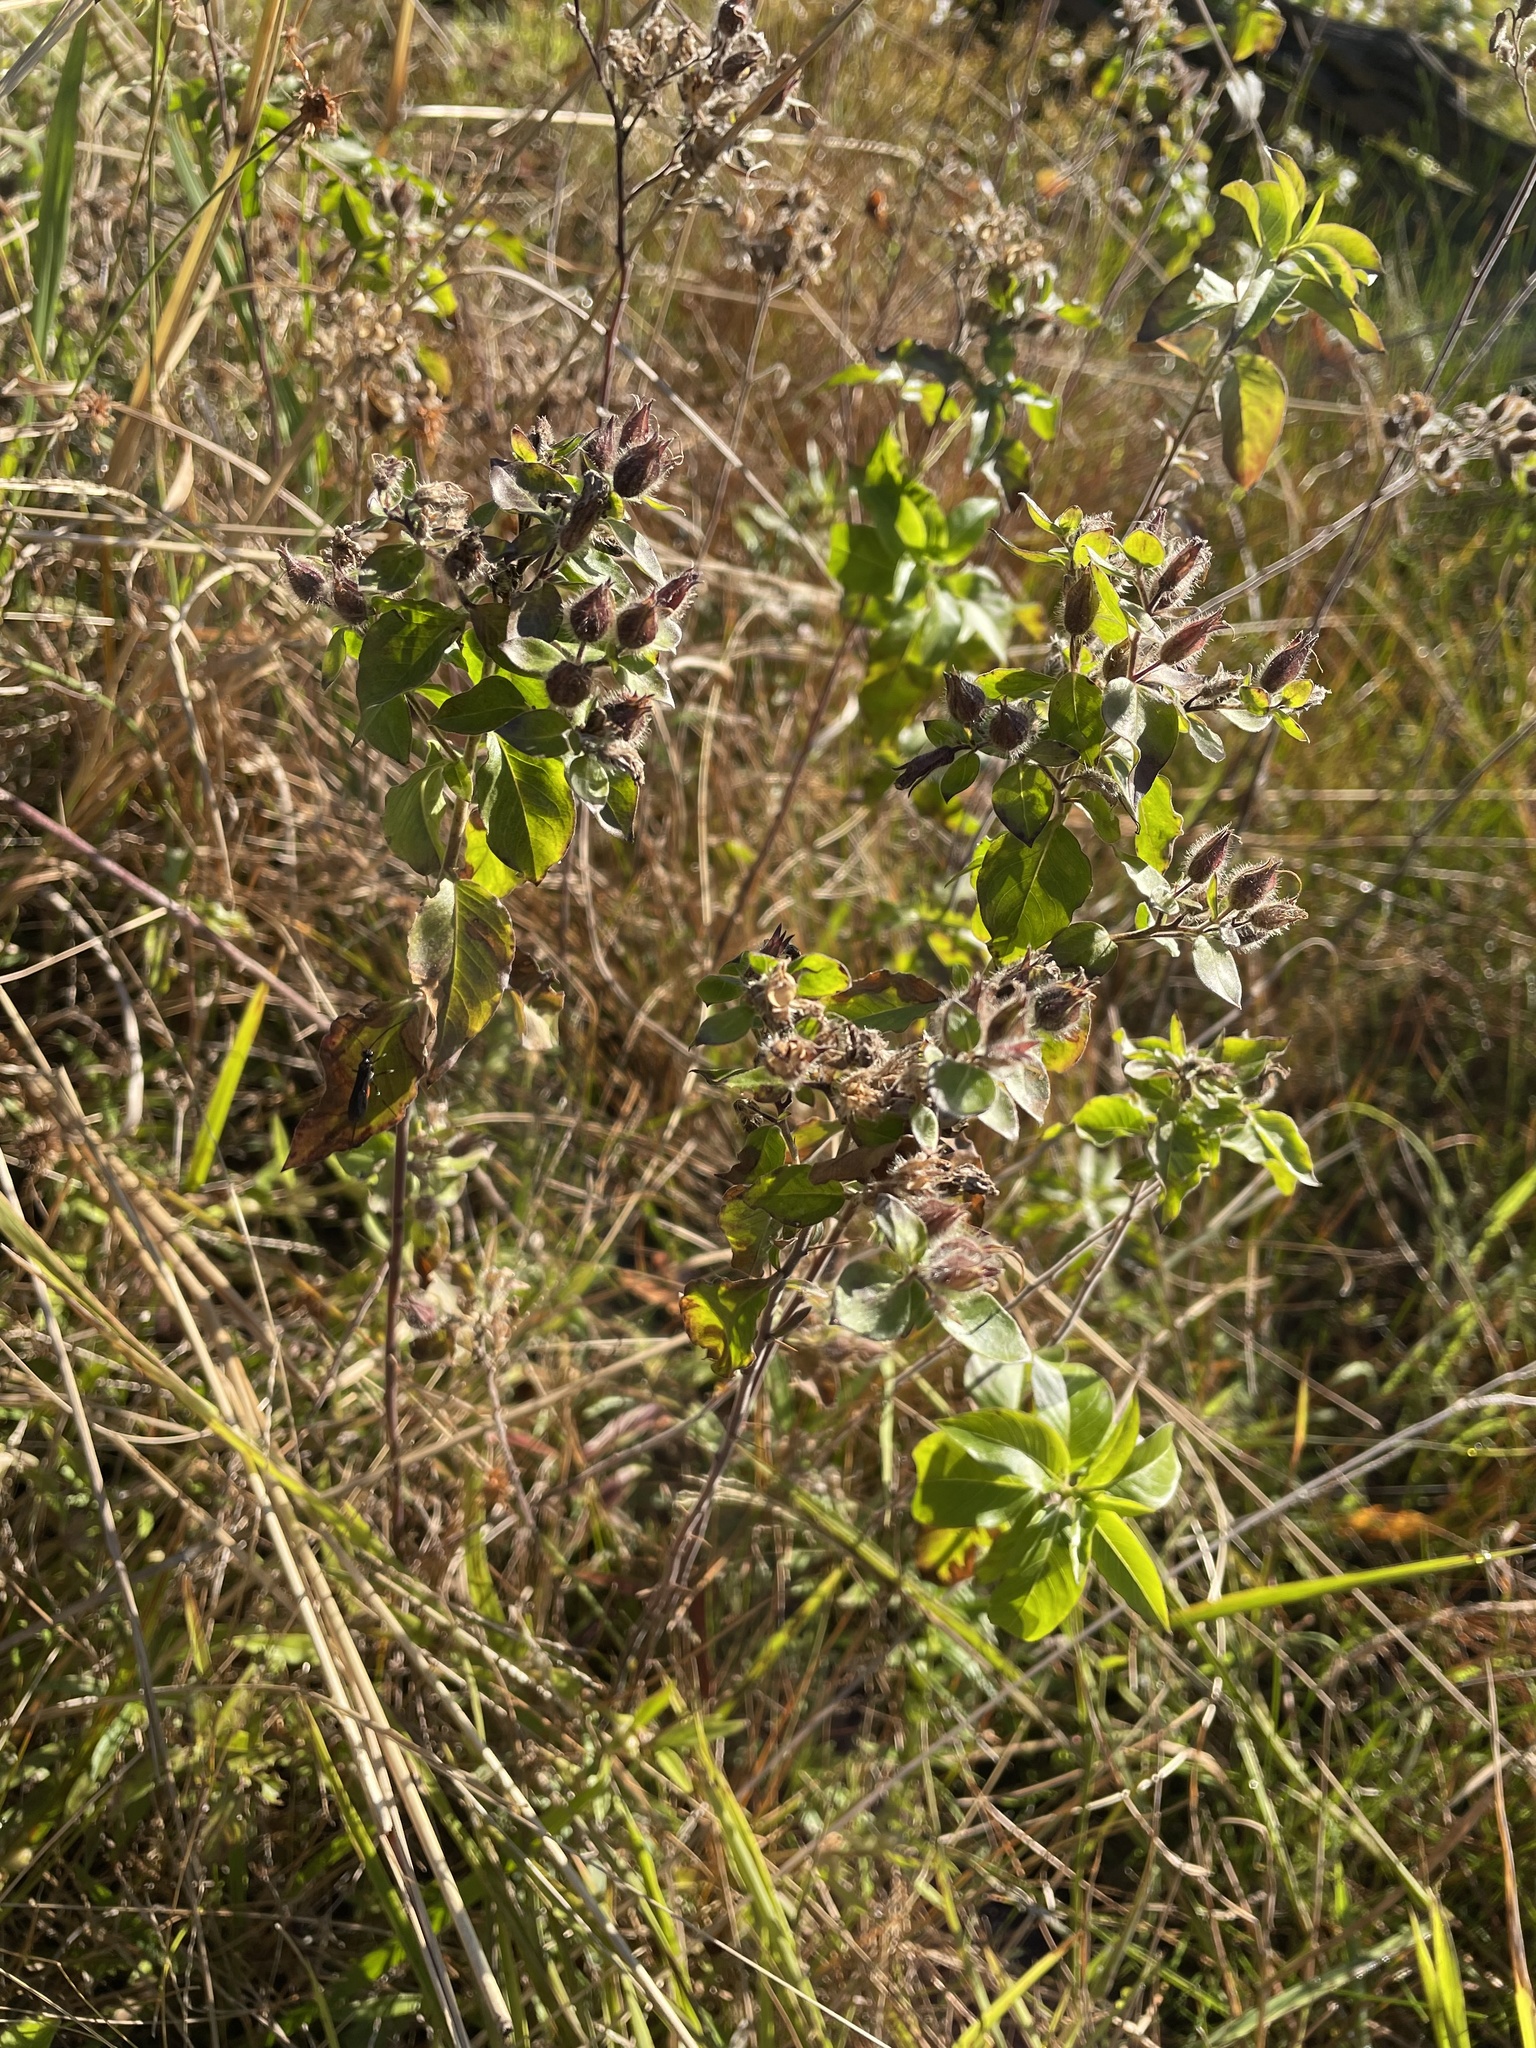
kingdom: Plantae
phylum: Tracheophyta
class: Magnoliopsida
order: Solanales
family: Hydroleaceae
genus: Hydrolea
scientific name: Hydrolea ovata
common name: Ovate false fiddleleaf
